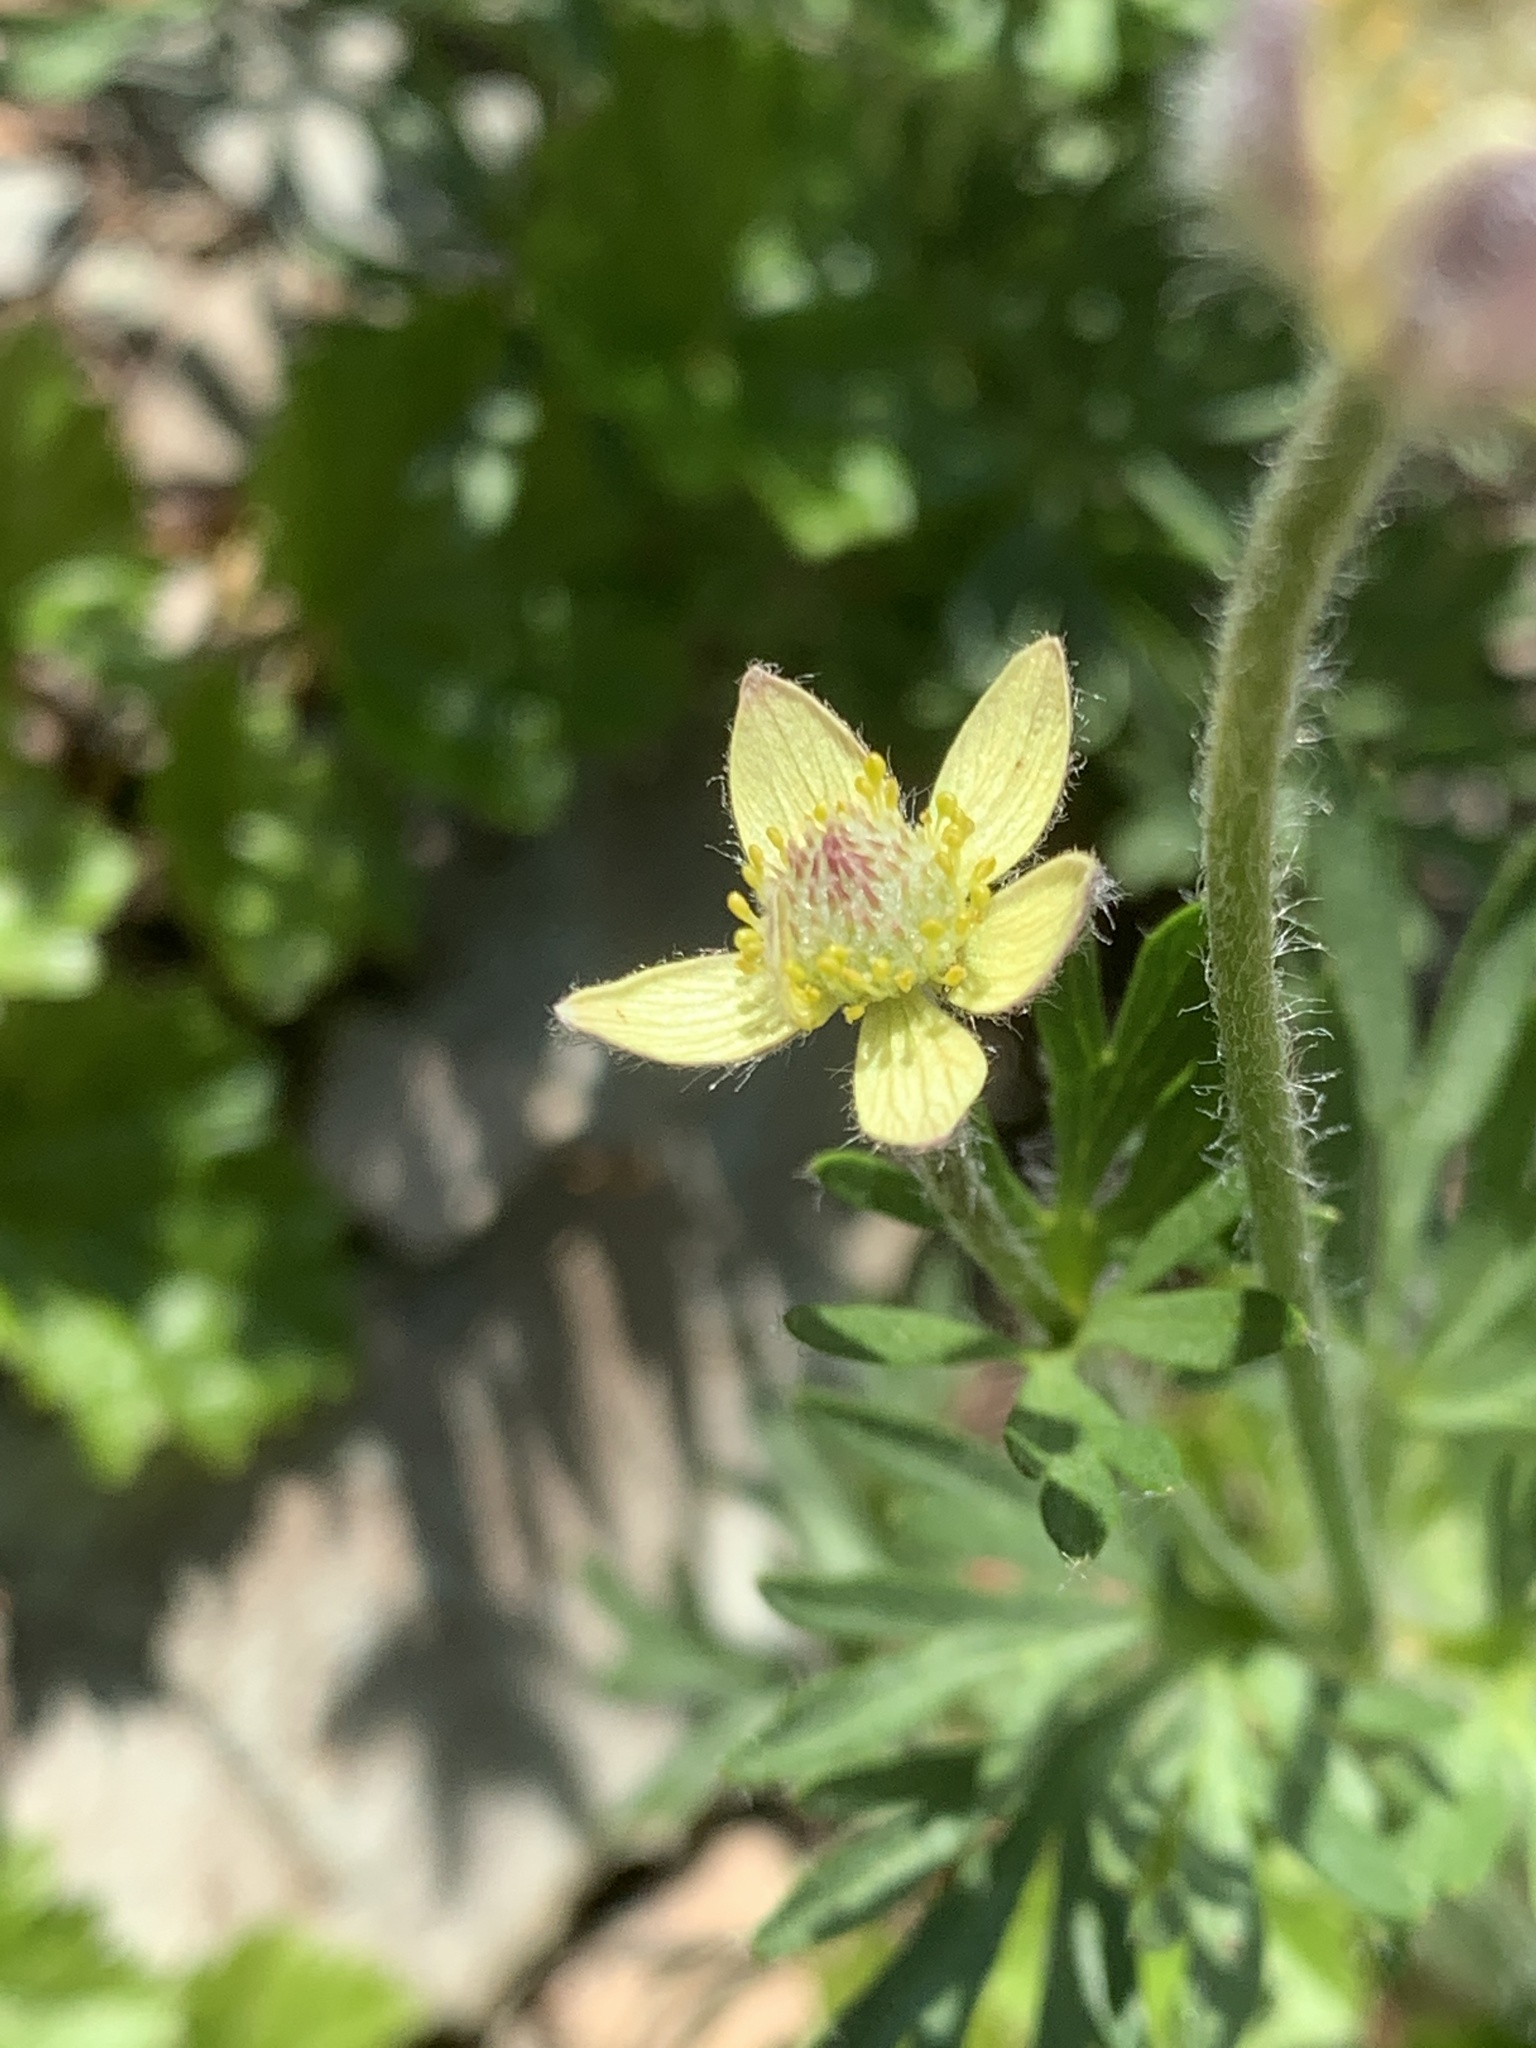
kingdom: Plantae
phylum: Tracheophyta
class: Magnoliopsida
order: Ranunculales
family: Ranunculaceae
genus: Anemone
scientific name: Anemone multifida
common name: Bird's-foot anemone
